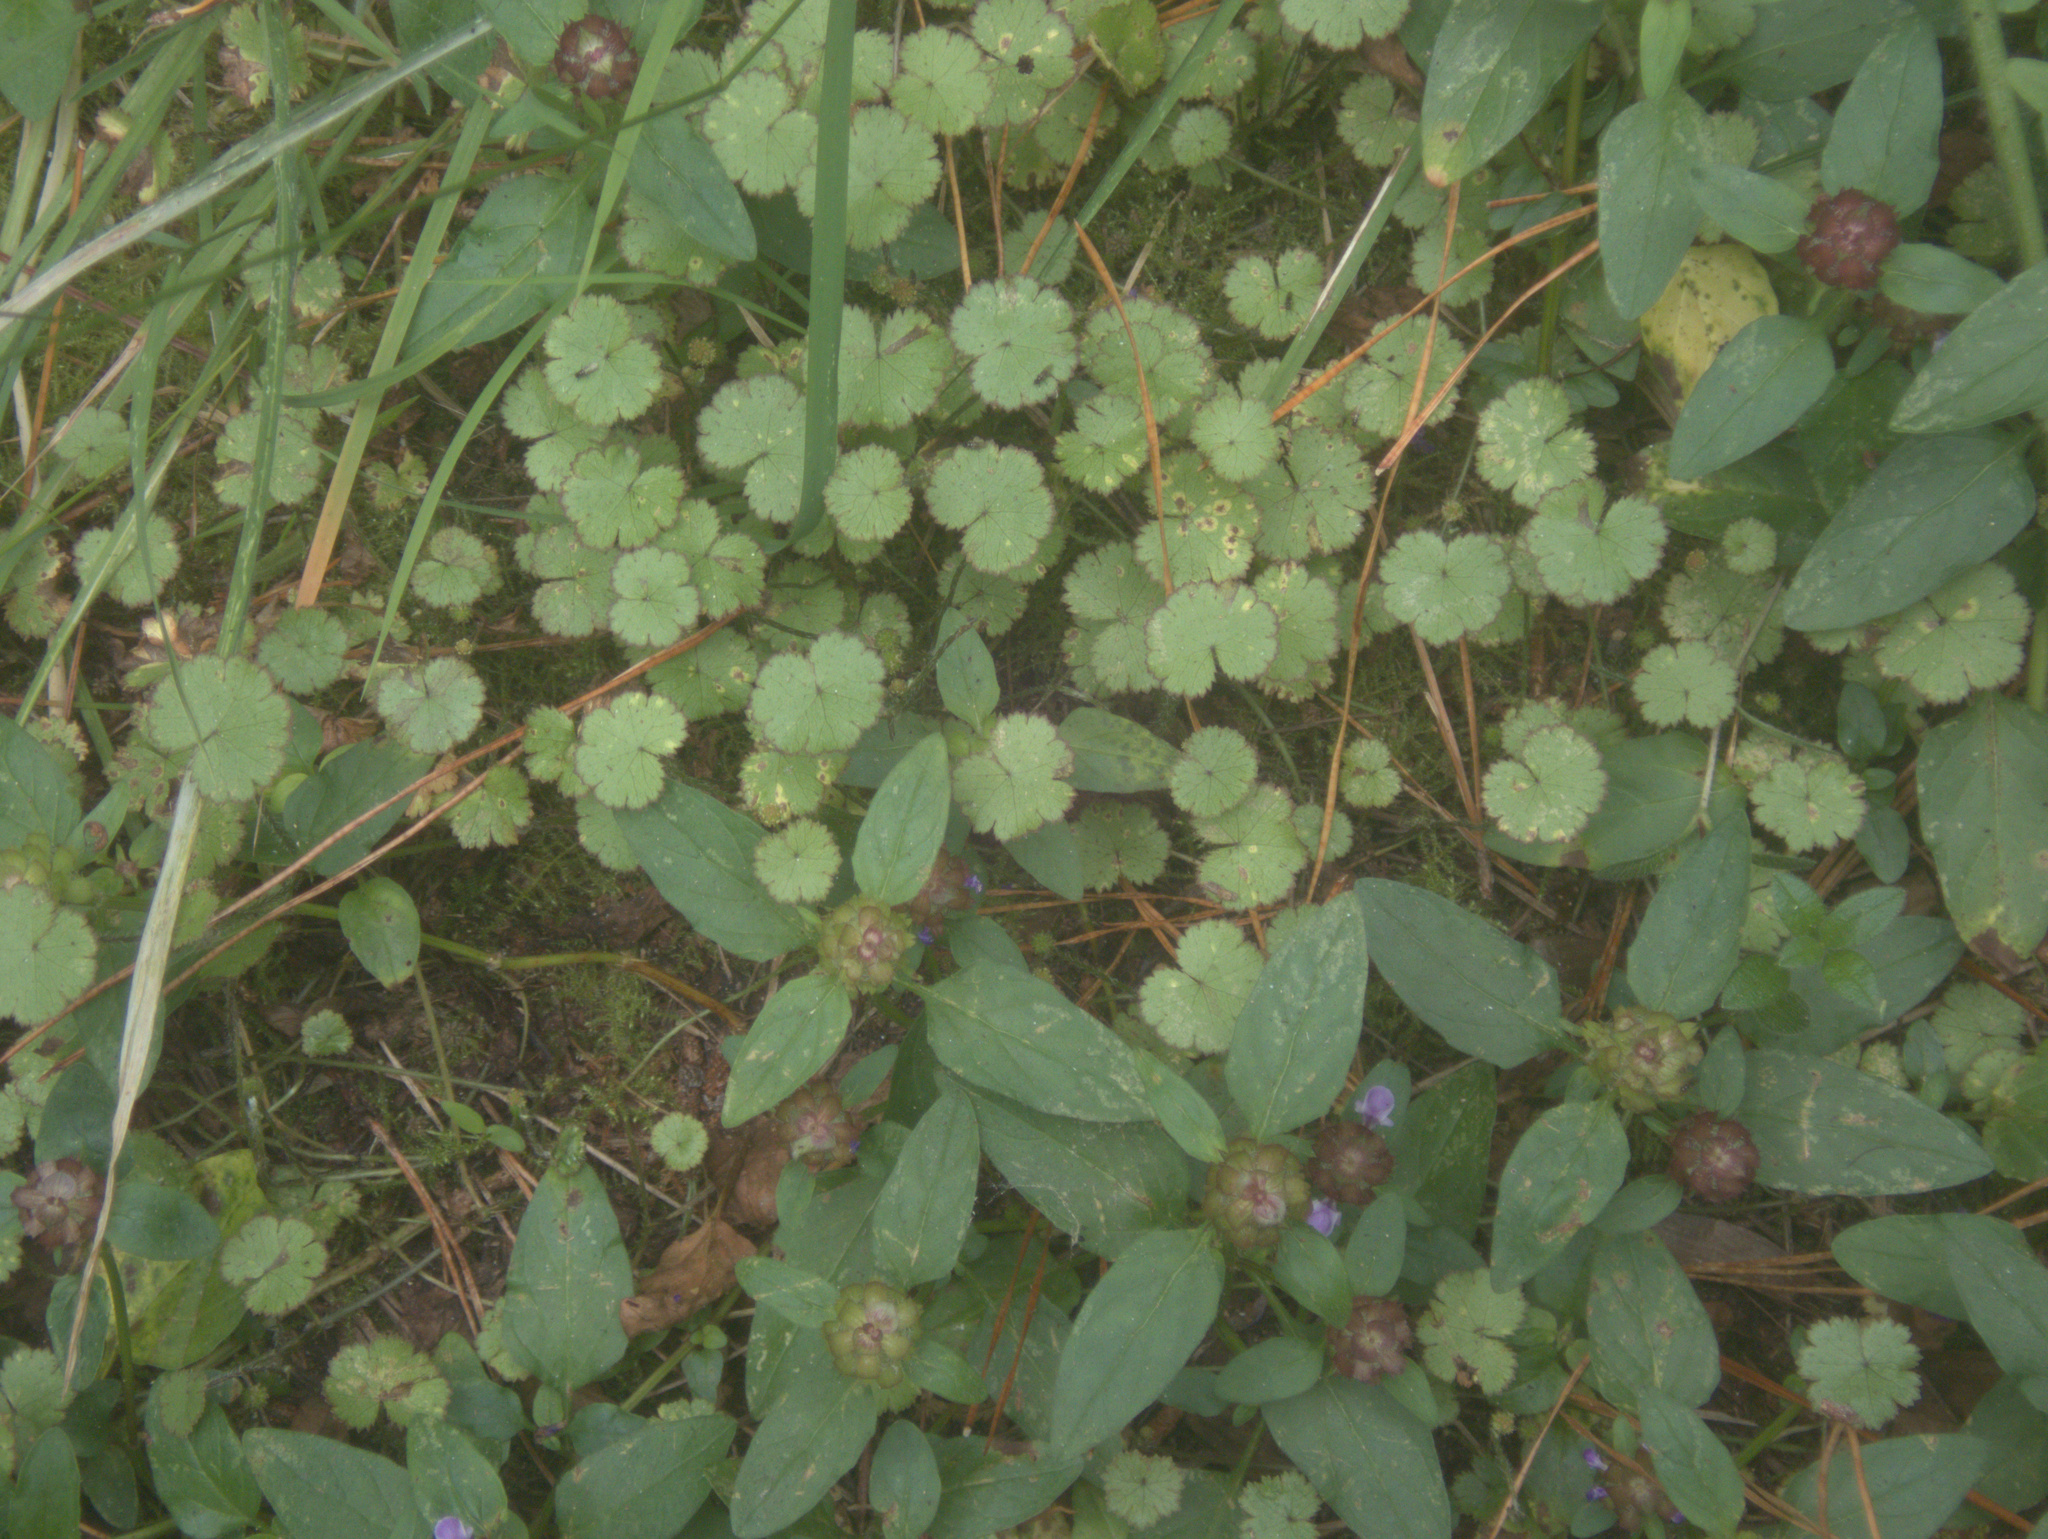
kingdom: Plantae
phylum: Tracheophyta
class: Magnoliopsida
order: Apiales
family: Araliaceae
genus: Hydrocotyle
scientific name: Hydrocotyle moschata
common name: Hairy pennywort
